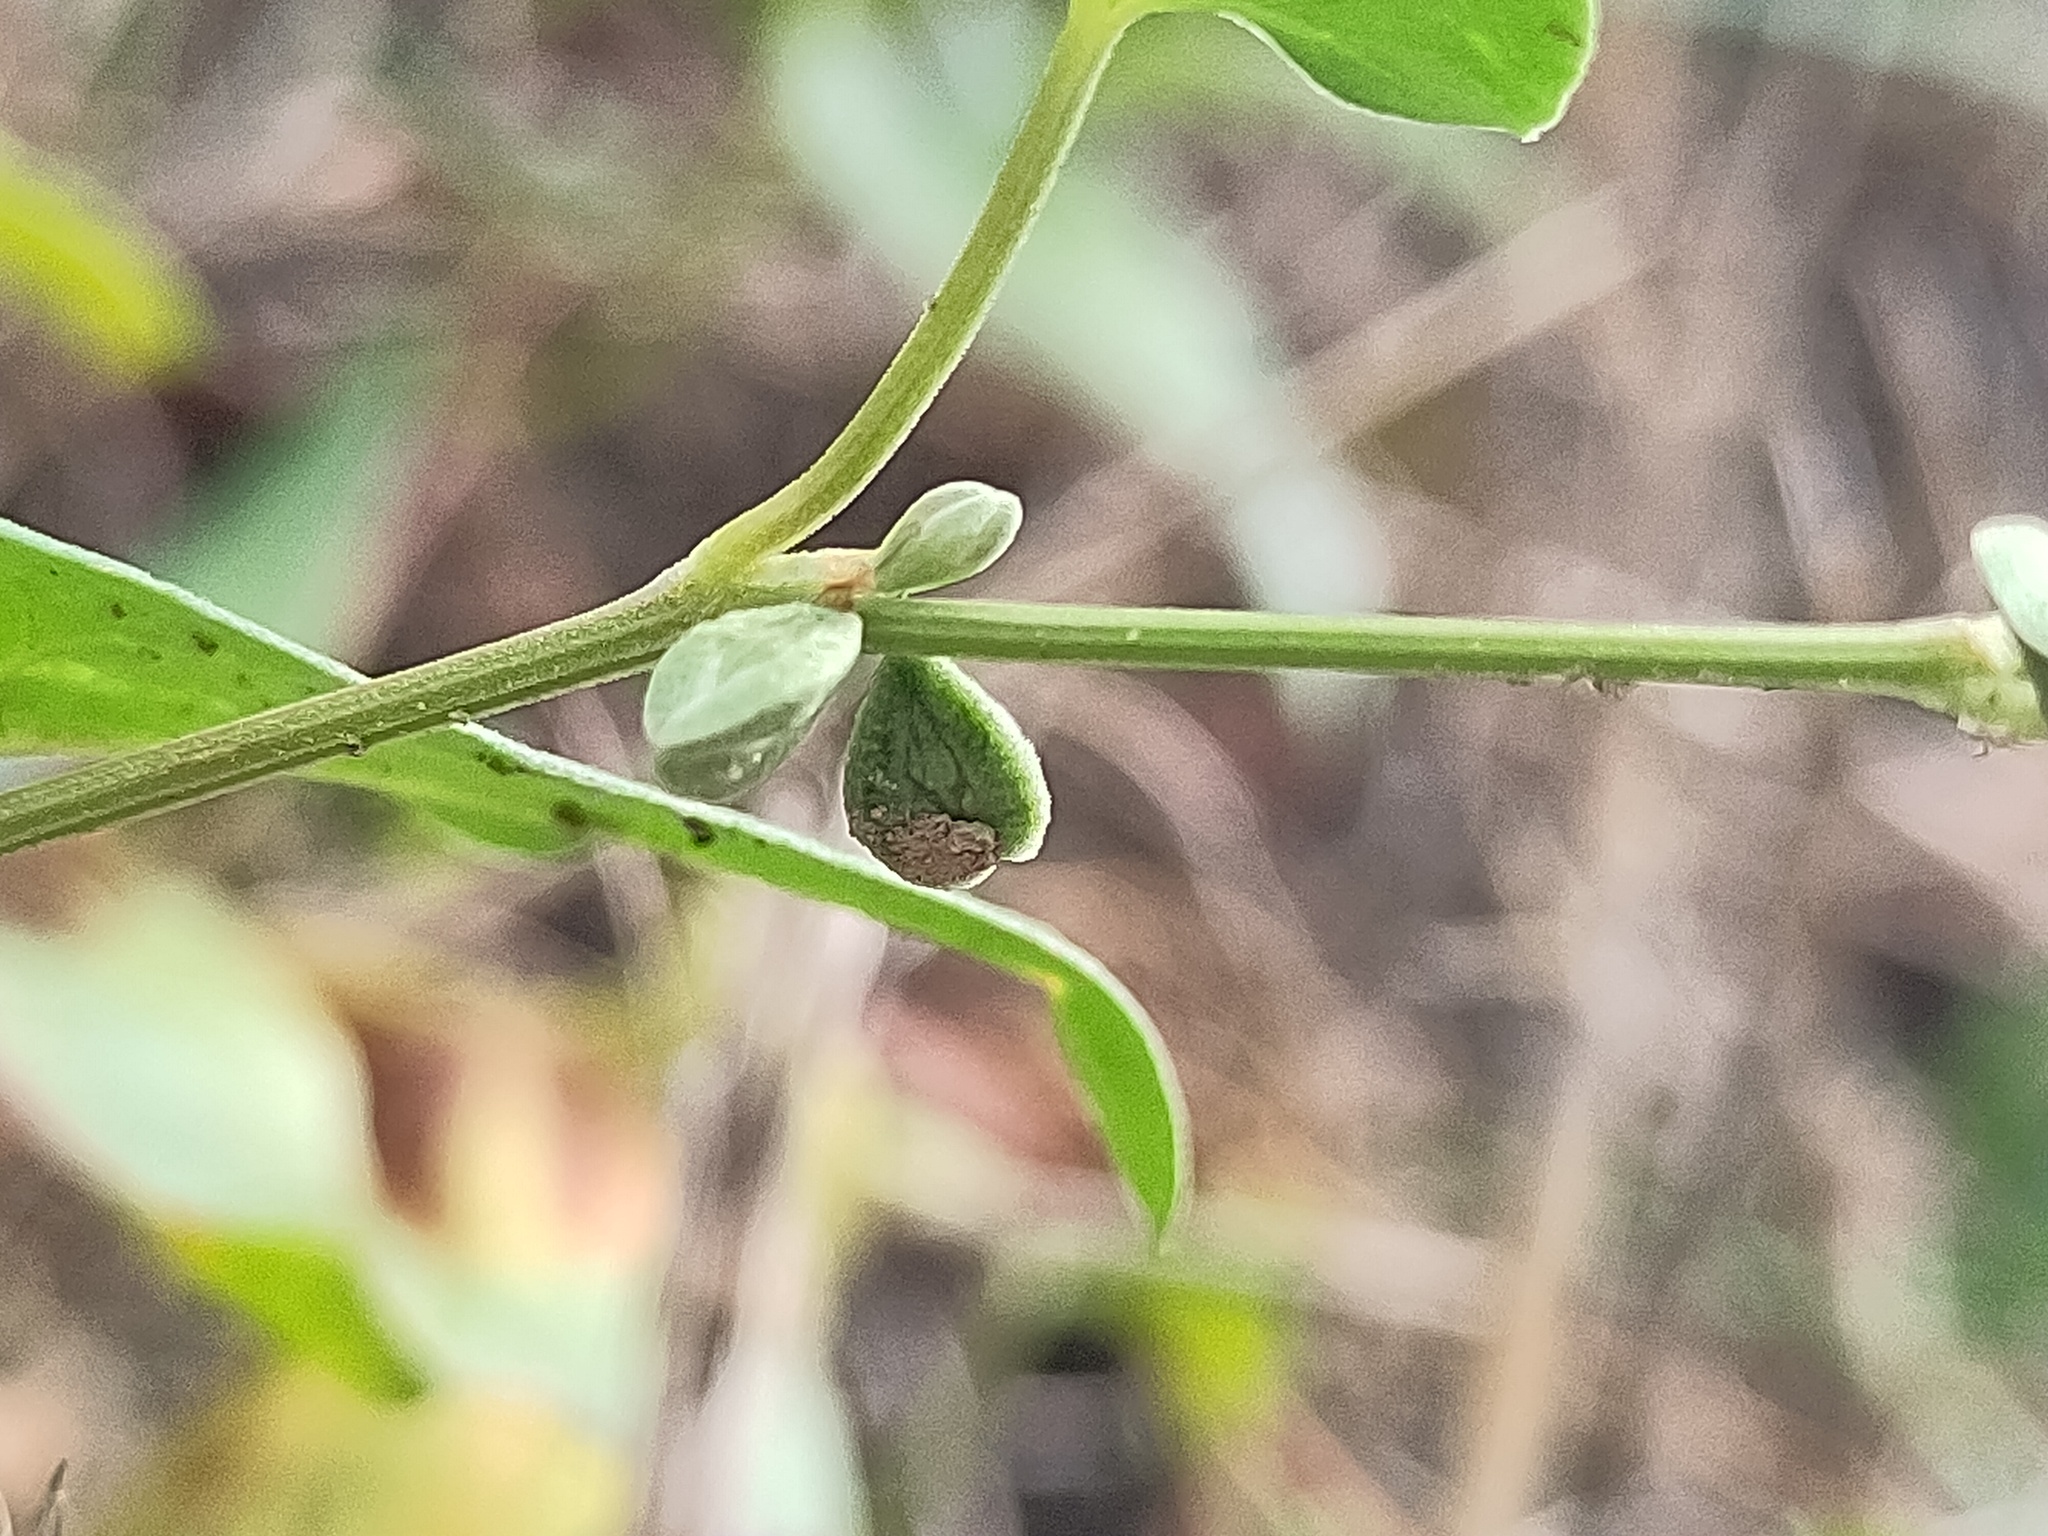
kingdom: Plantae
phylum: Tracheophyta
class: Magnoliopsida
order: Caryophyllales
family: Polygonaceae
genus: Fallopia
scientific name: Fallopia convolvulus
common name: Black bindweed
